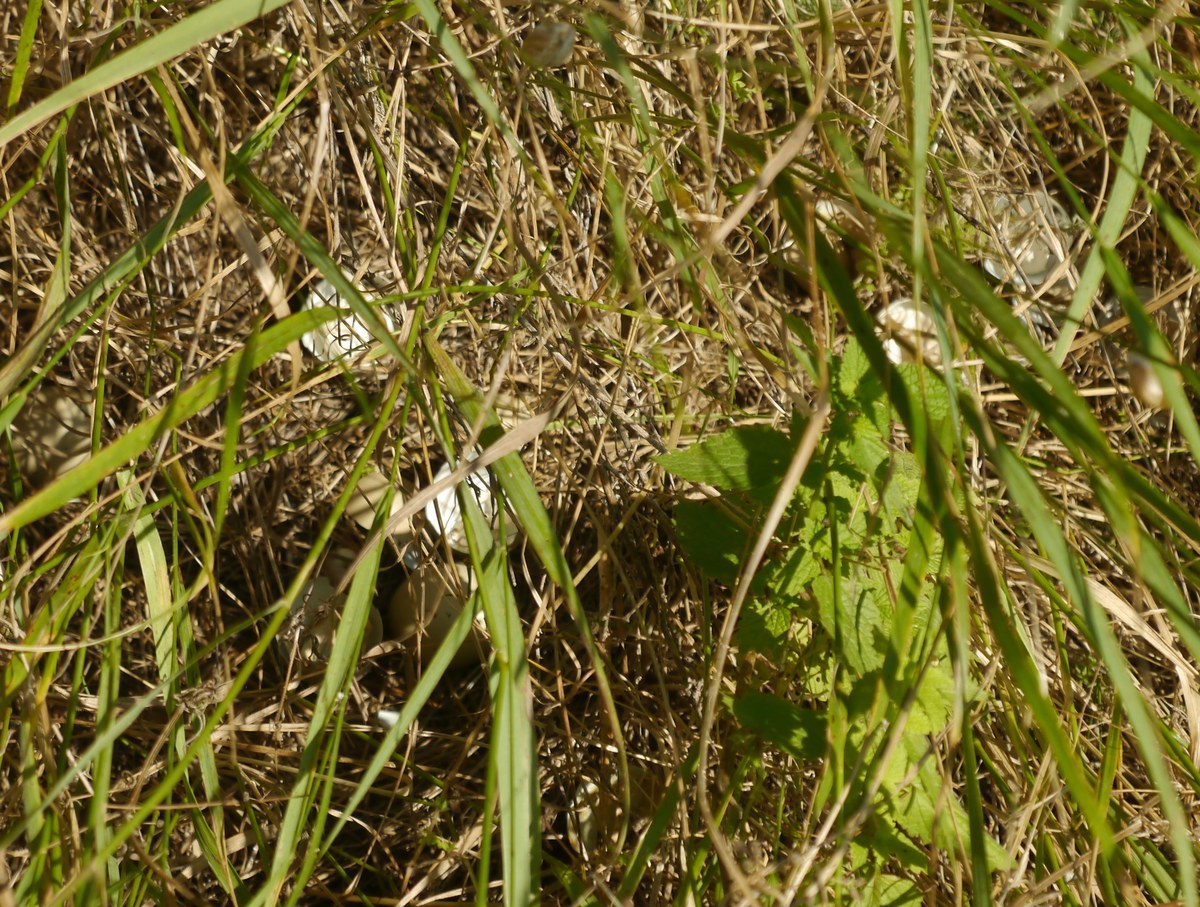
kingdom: Animalia
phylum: Chordata
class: Aves
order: Galliformes
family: Phasianidae
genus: Phasianus
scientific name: Phasianus colchicus
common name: Common pheasant
